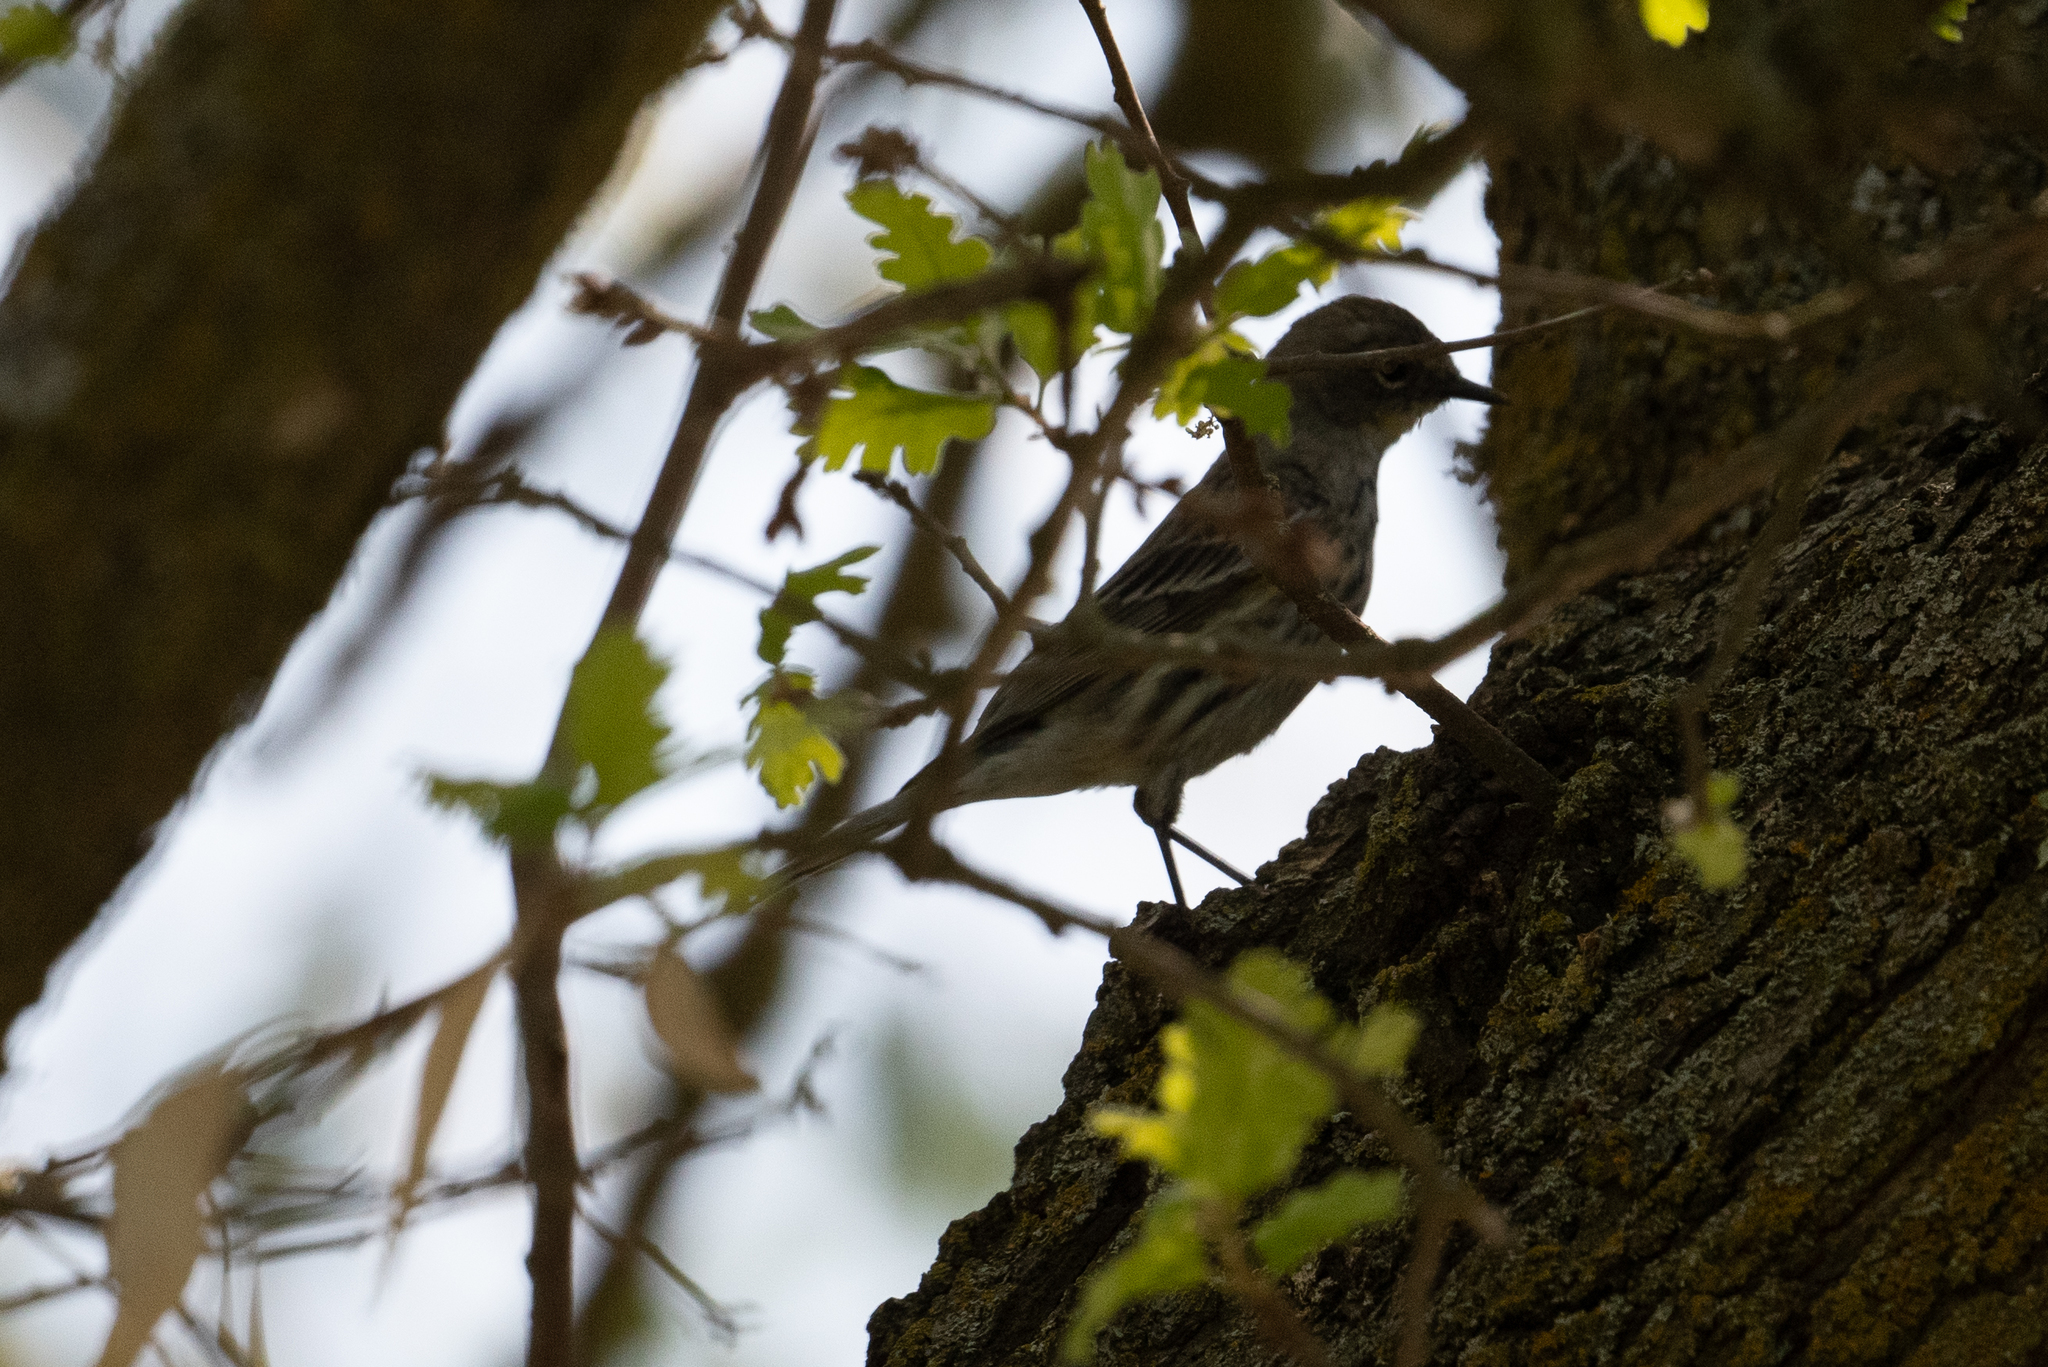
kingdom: Animalia
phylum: Chordata
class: Aves
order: Passeriformes
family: Parulidae
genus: Setophaga
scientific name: Setophaga coronata
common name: Myrtle warbler
